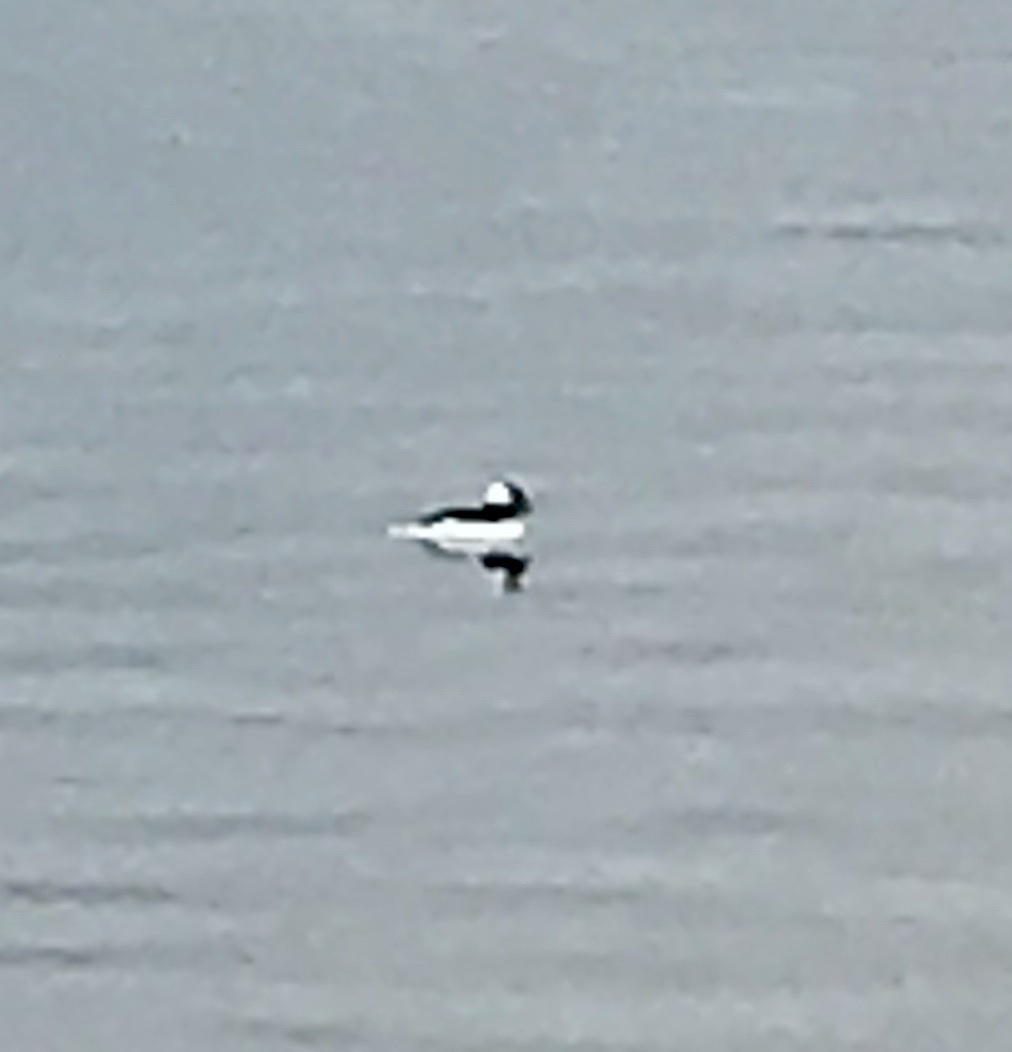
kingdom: Animalia
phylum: Chordata
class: Aves
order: Anseriformes
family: Anatidae
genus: Bucephala
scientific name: Bucephala albeola
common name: Bufflehead
